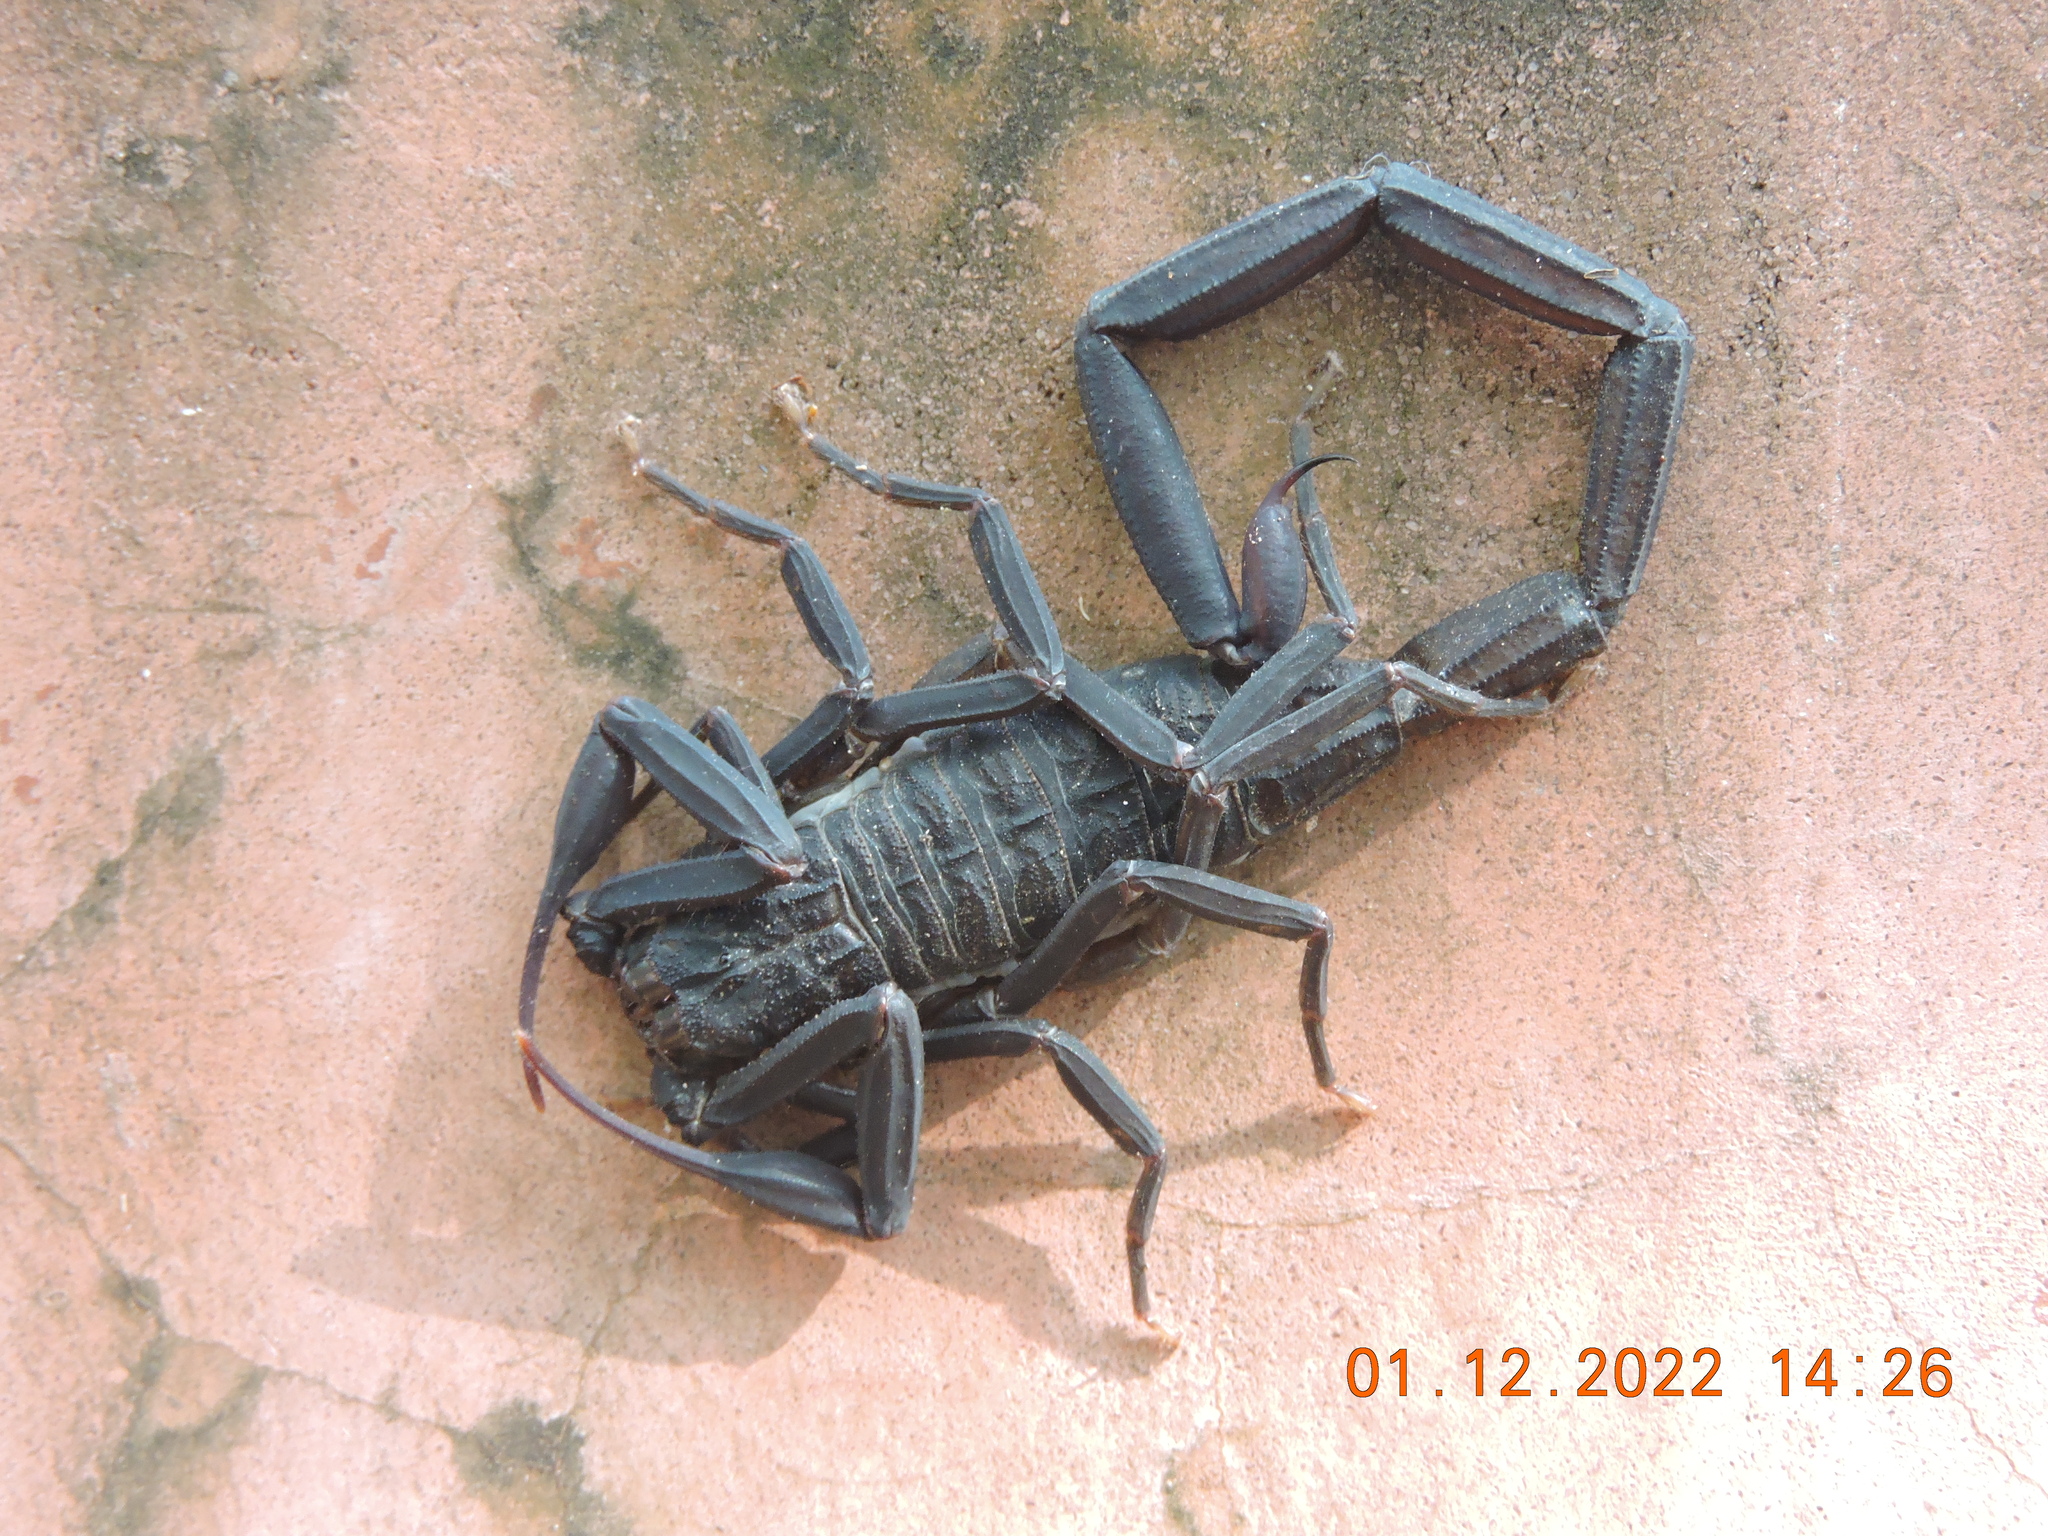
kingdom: Animalia
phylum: Arthropoda
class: Arachnida
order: Scorpiones
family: Buthidae
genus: Centruroides
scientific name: Centruroides nigrescens
